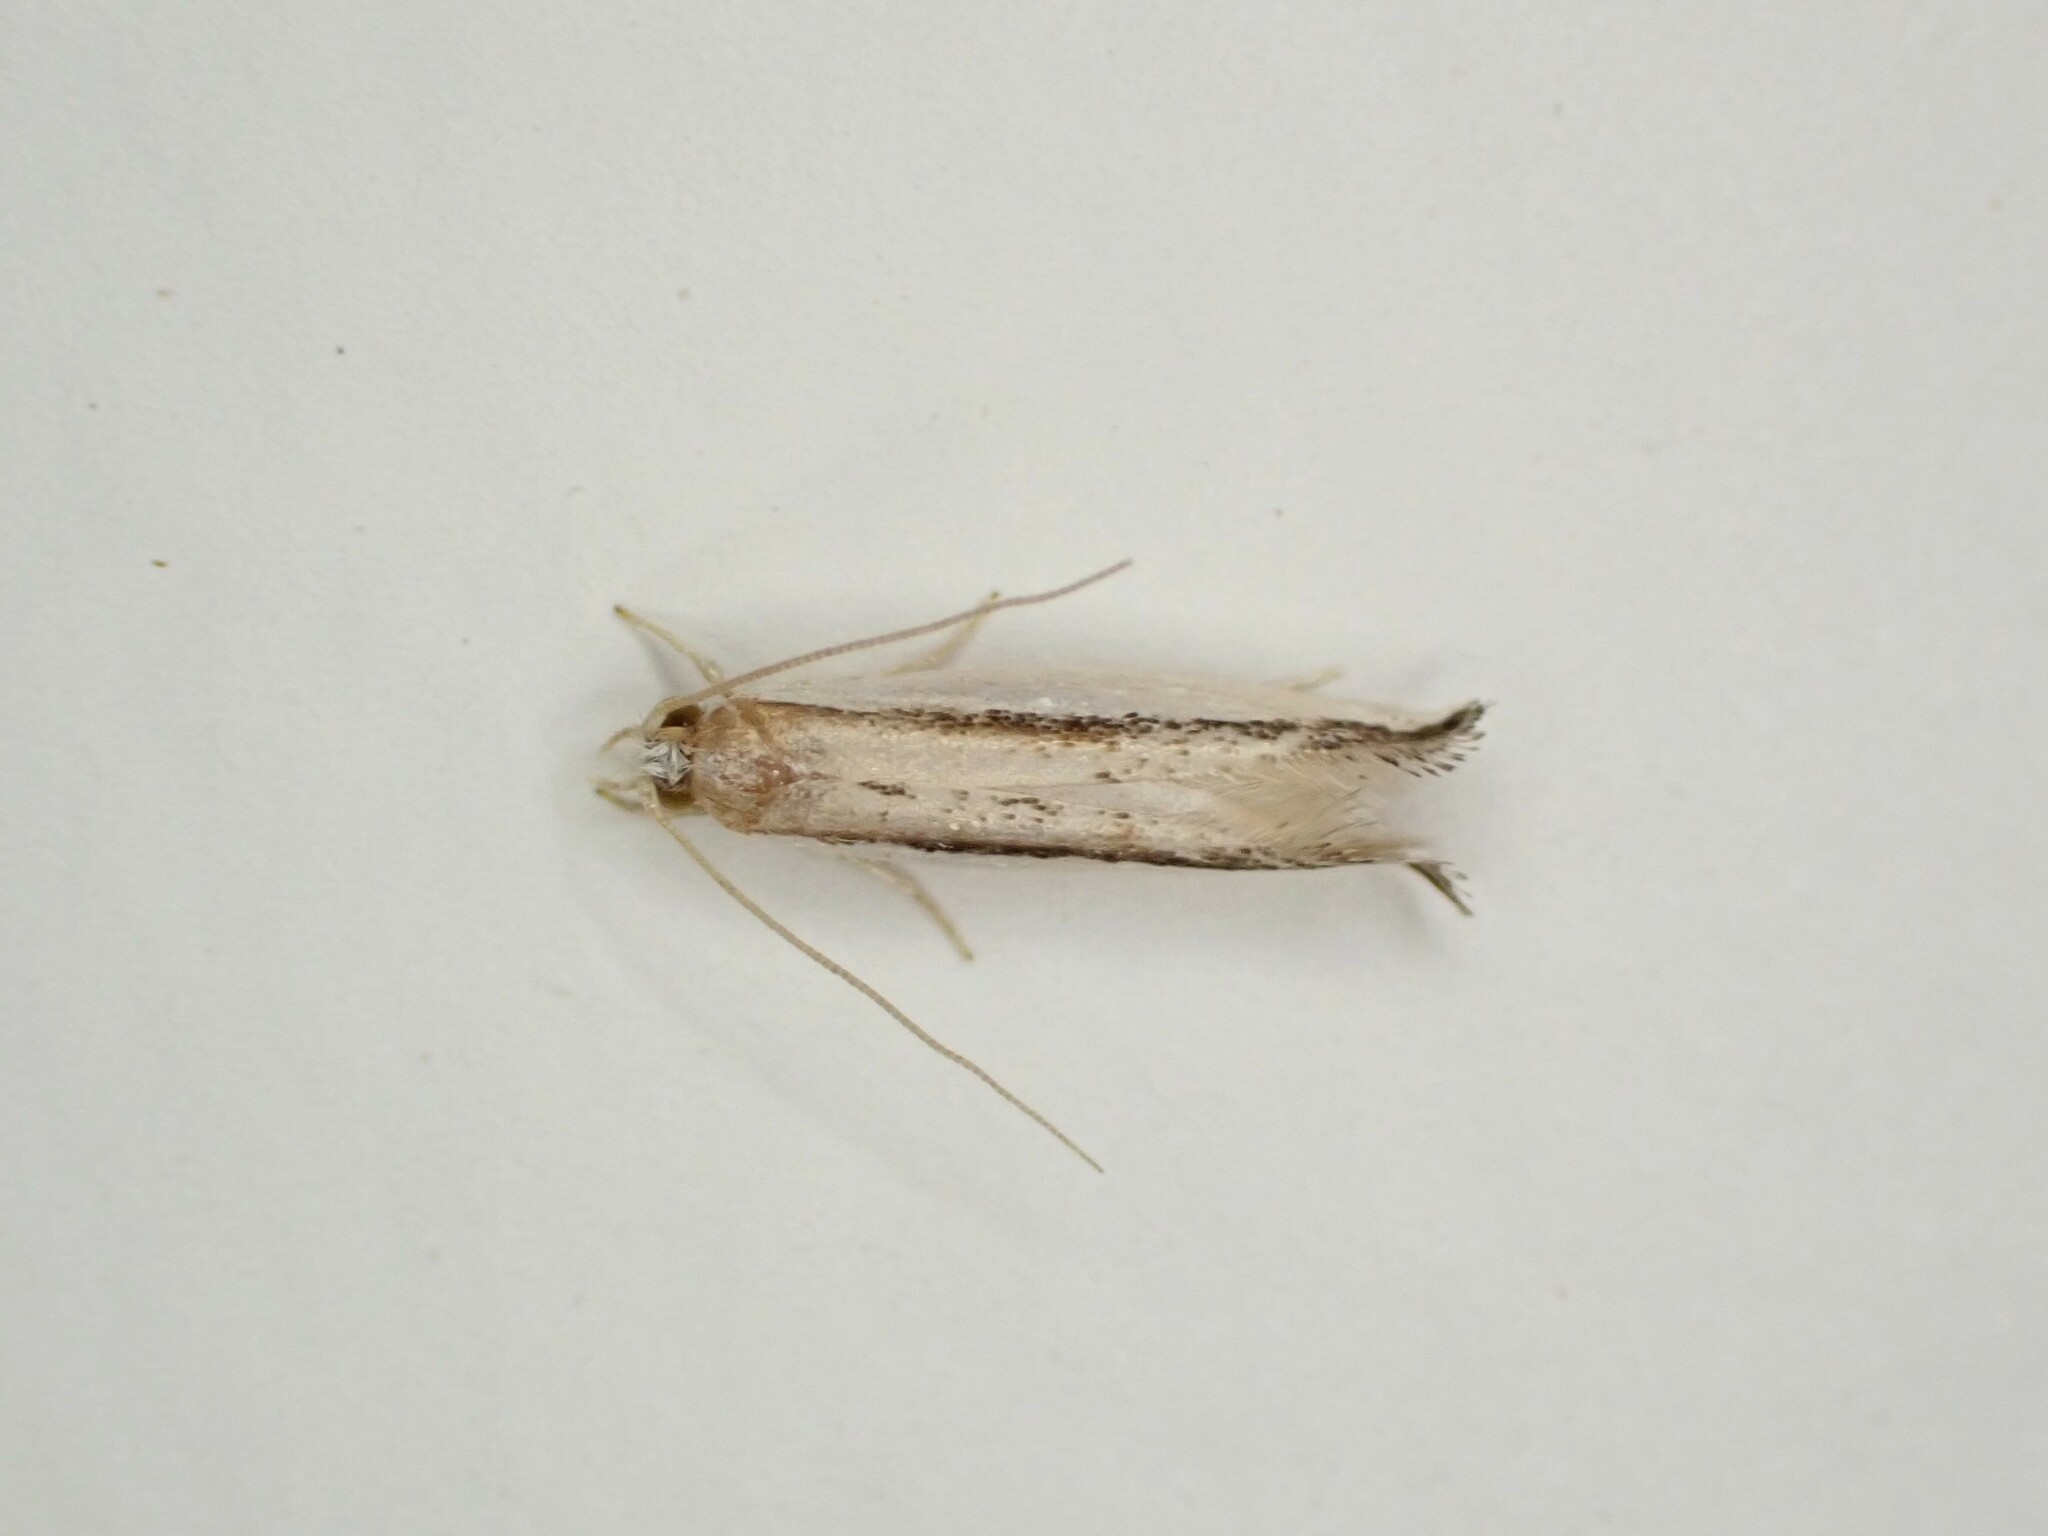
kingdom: Animalia
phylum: Arthropoda
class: Insecta
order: Lepidoptera
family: Tineidae
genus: Erechthias
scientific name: Erechthias chionodira
